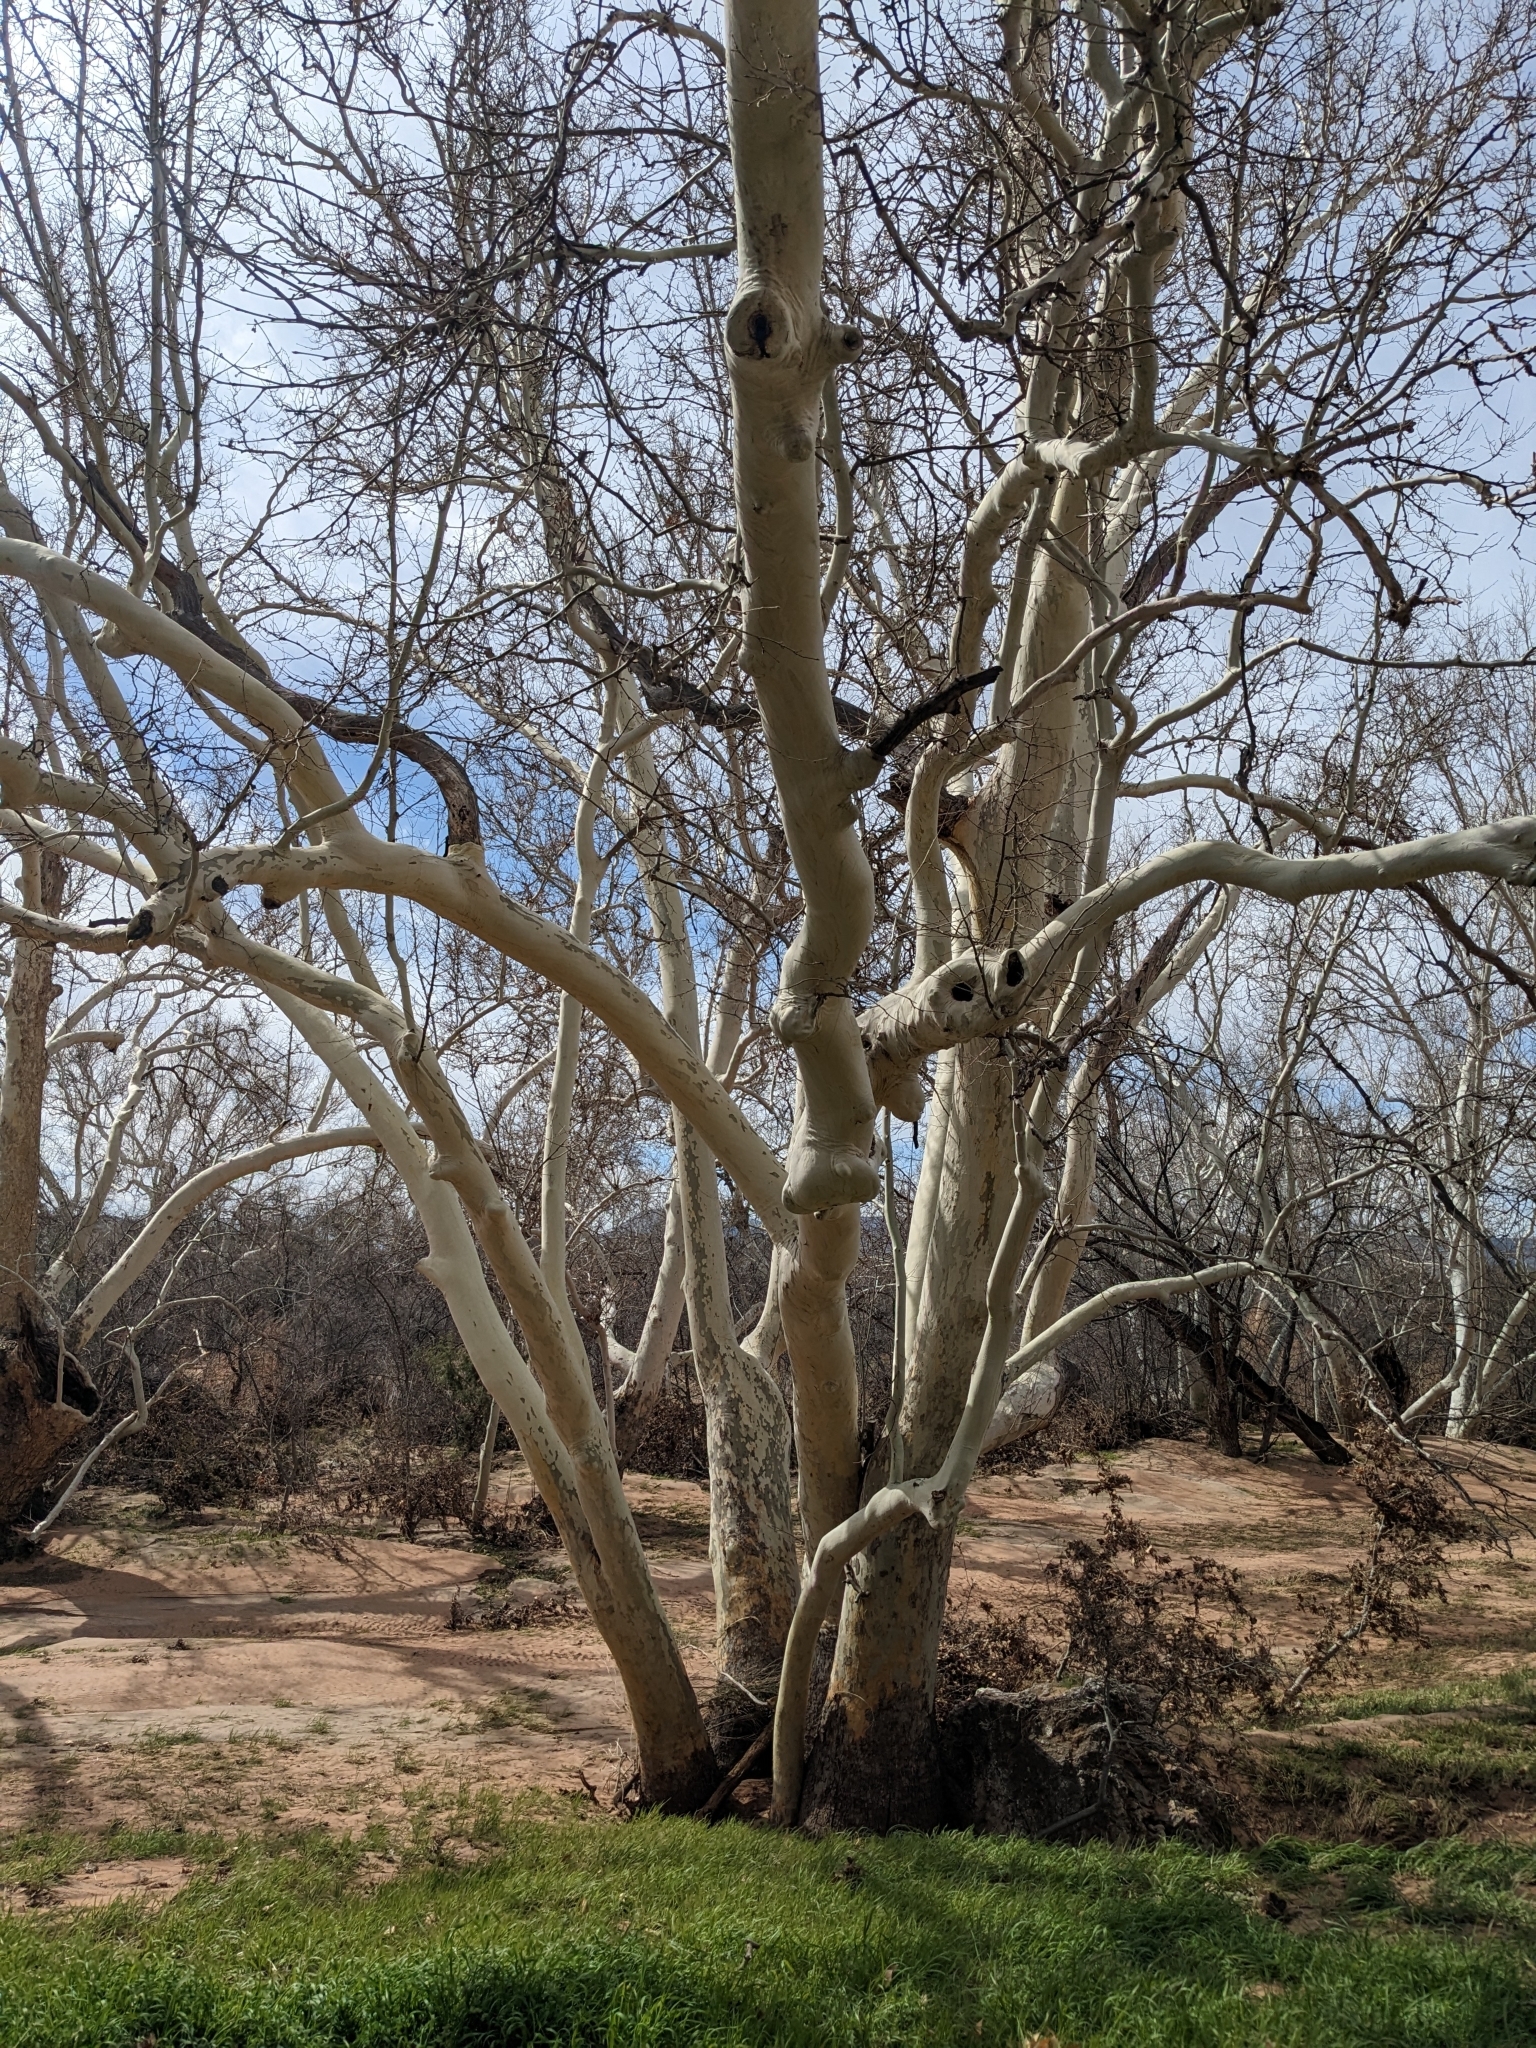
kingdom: Plantae
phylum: Tracheophyta
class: Magnoliopsida
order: Proteales
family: Platanaceae
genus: Platanus
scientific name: Platanus wrightii
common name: Arizona sycamore
